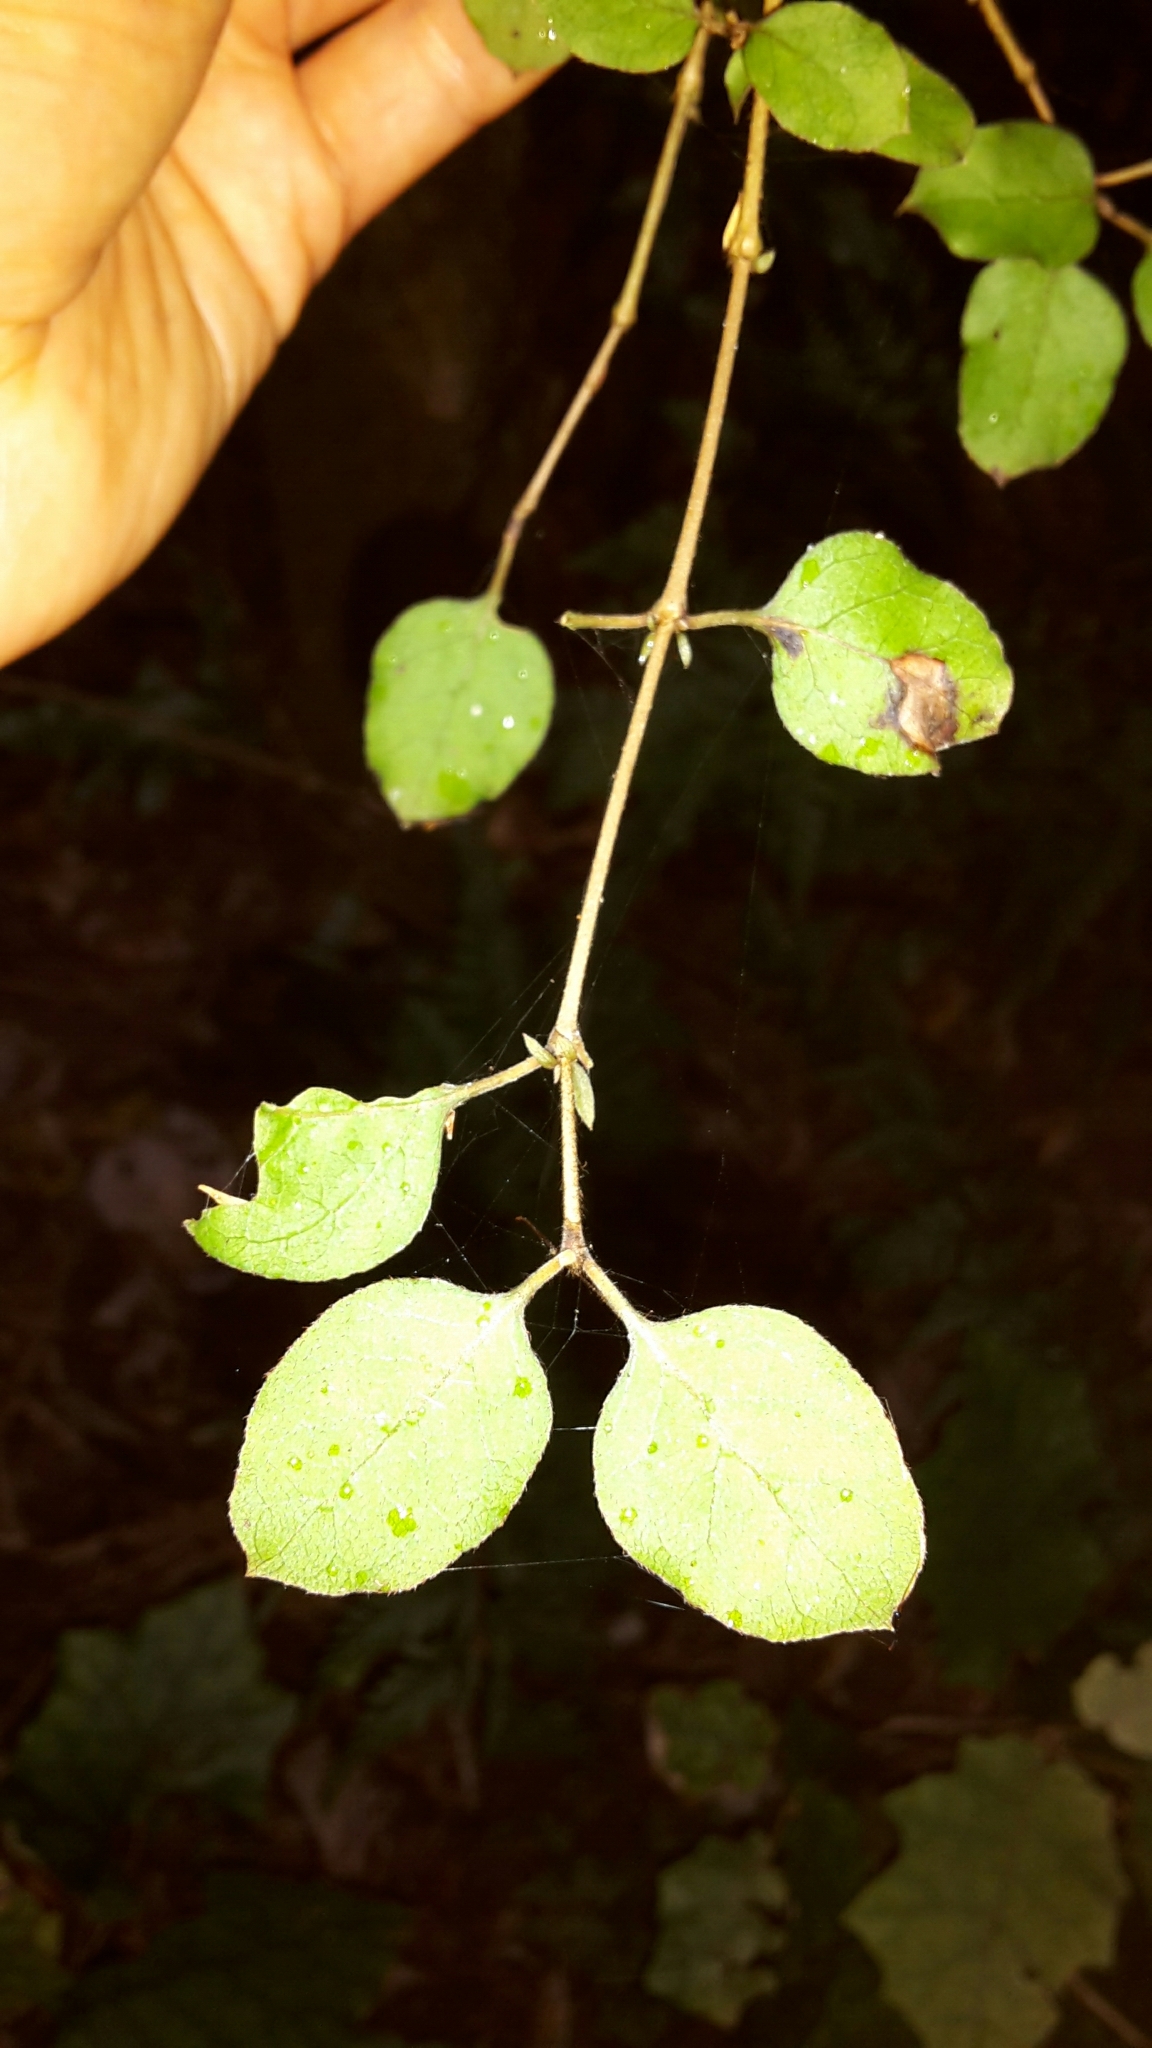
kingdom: Plantae
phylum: Tracheophyta
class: Magnoliopsida
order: Gentianales
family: Rubiaceae
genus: Coprosma
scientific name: Coprosma rotundifolia
